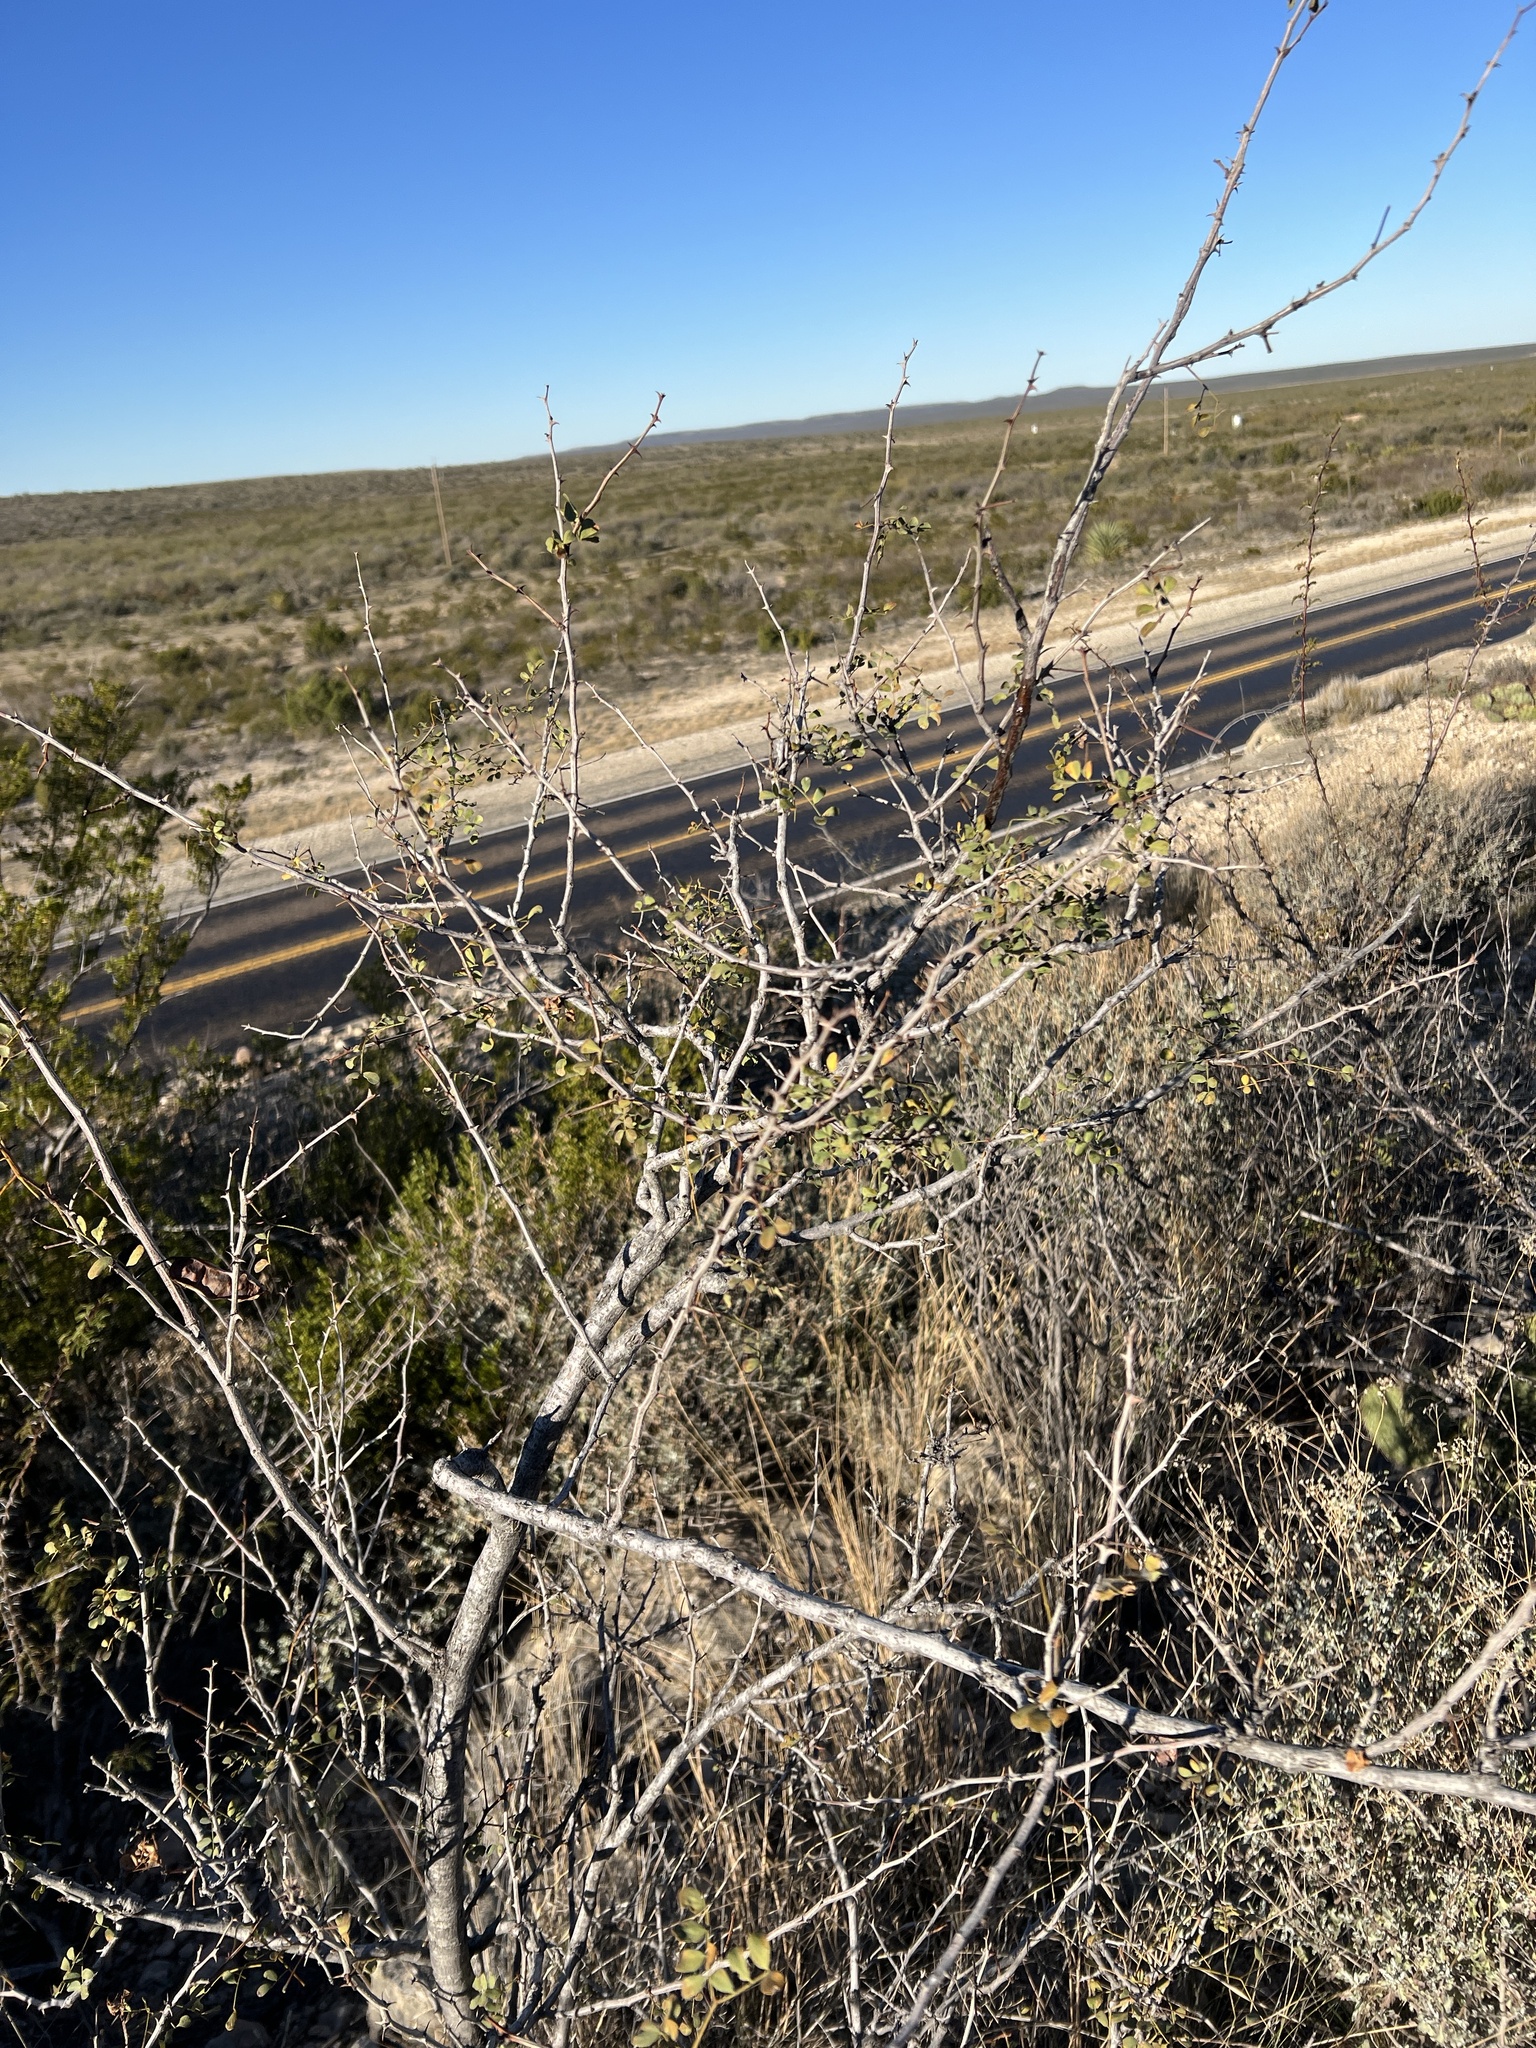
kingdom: Plantae
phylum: Tracheophyta
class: Magnoliopsida
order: Fabales
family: Fabaceae
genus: Senegalia
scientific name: Senegalia roemeriana
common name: Roemer's acacia
